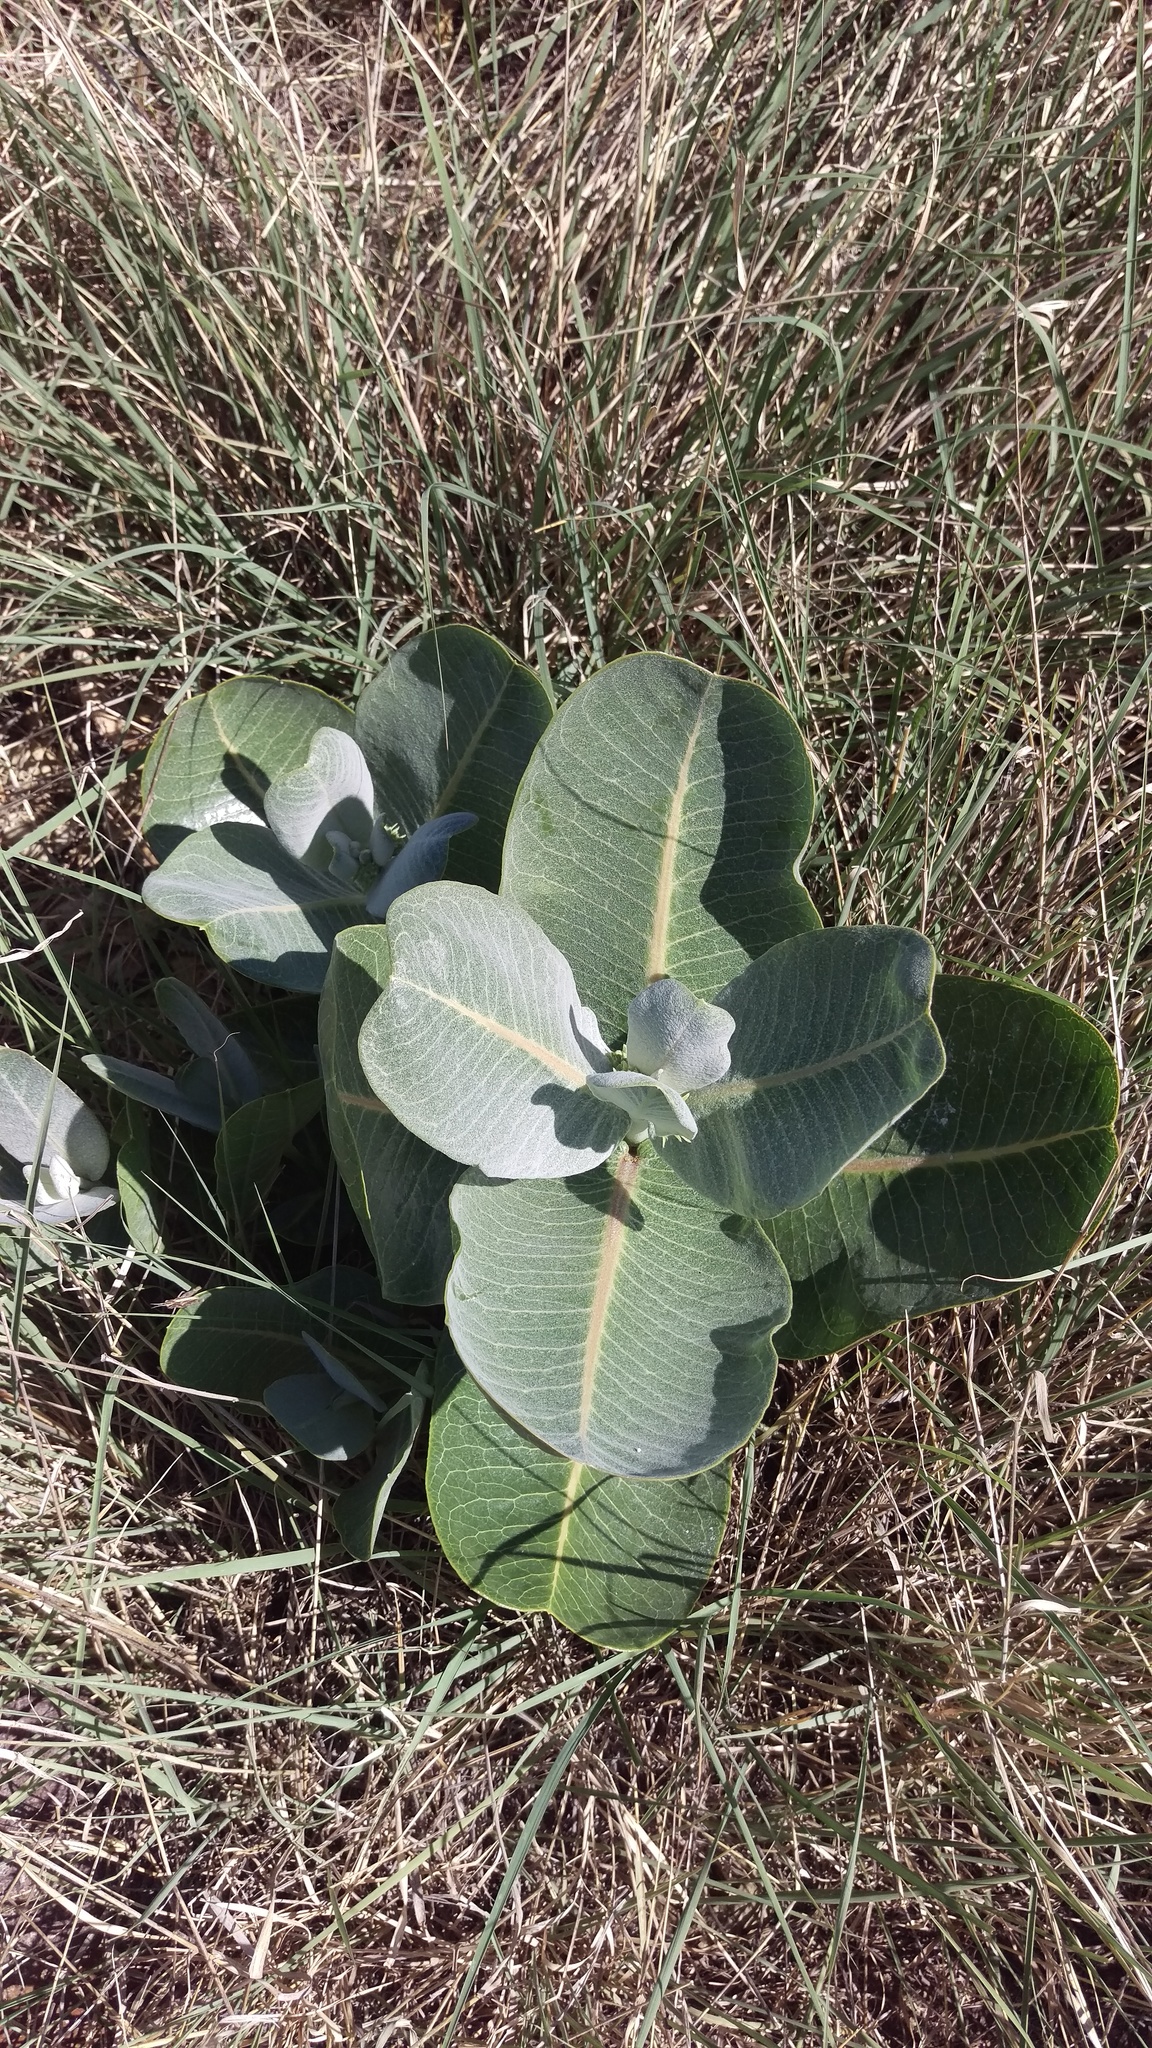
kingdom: Plantae
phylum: Tracheophyta
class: Magnoliopsida
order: Gentianales
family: Apocynaceae
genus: Asclepias
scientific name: Asclepias latifolia
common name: Broadleaf milkweed
